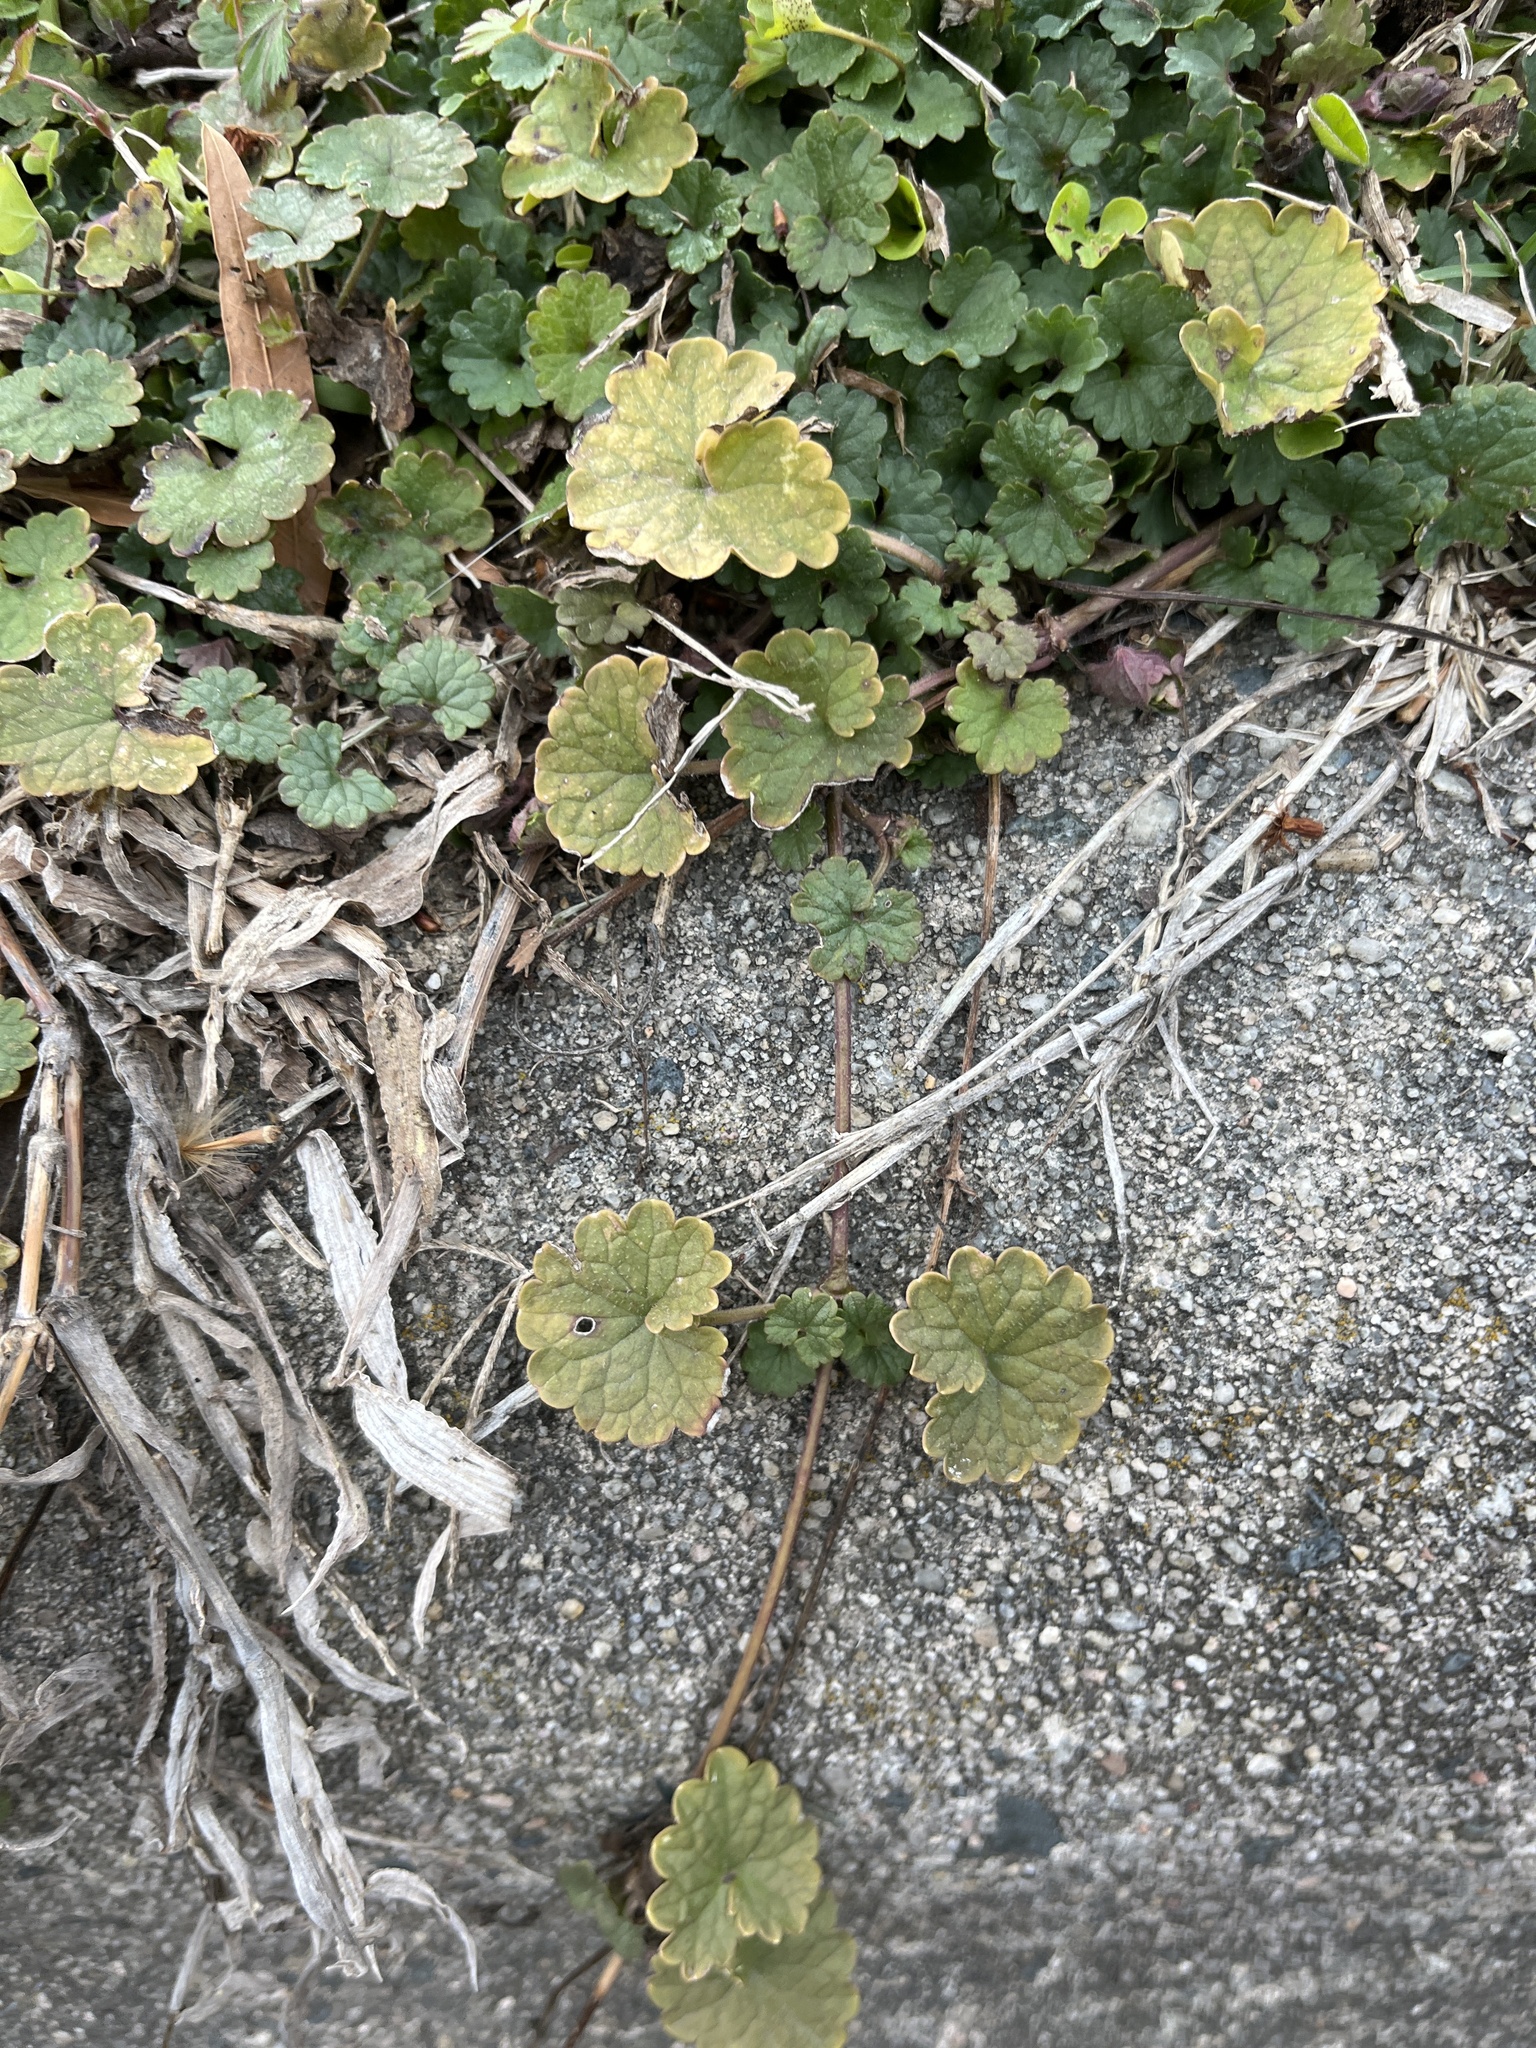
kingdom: Plantae
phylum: Tracheophyta
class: Magnoliopsida
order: Lamiales
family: Lamiaceae
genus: Glechoma
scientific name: Glechoma hederacea
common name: Ground ivy
